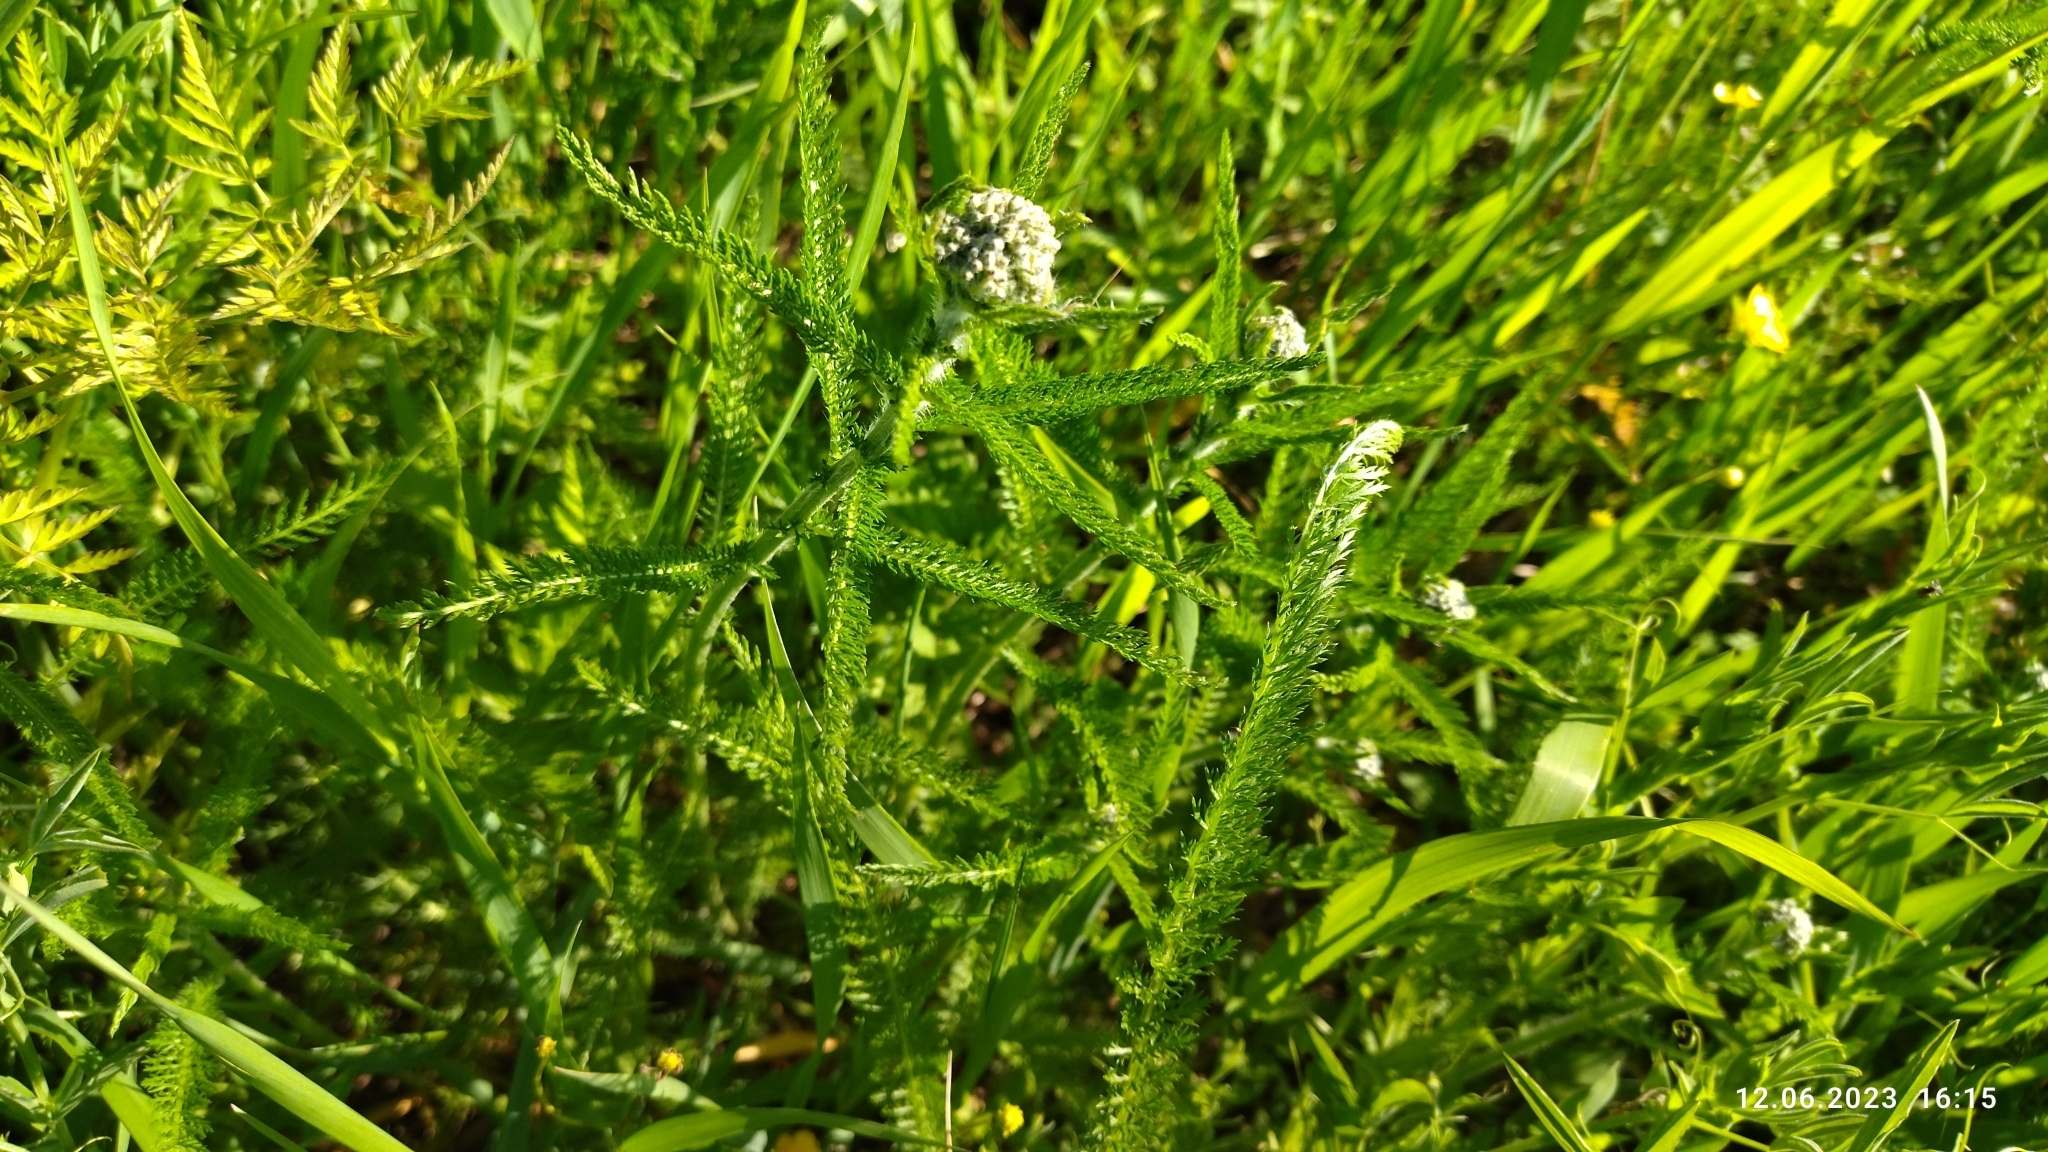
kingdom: Plantae
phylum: Tracheophyta
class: Magnoliopsida
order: Asterales
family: Asteraceae
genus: Achillea
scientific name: Achillea millefolium
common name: Yarrow
